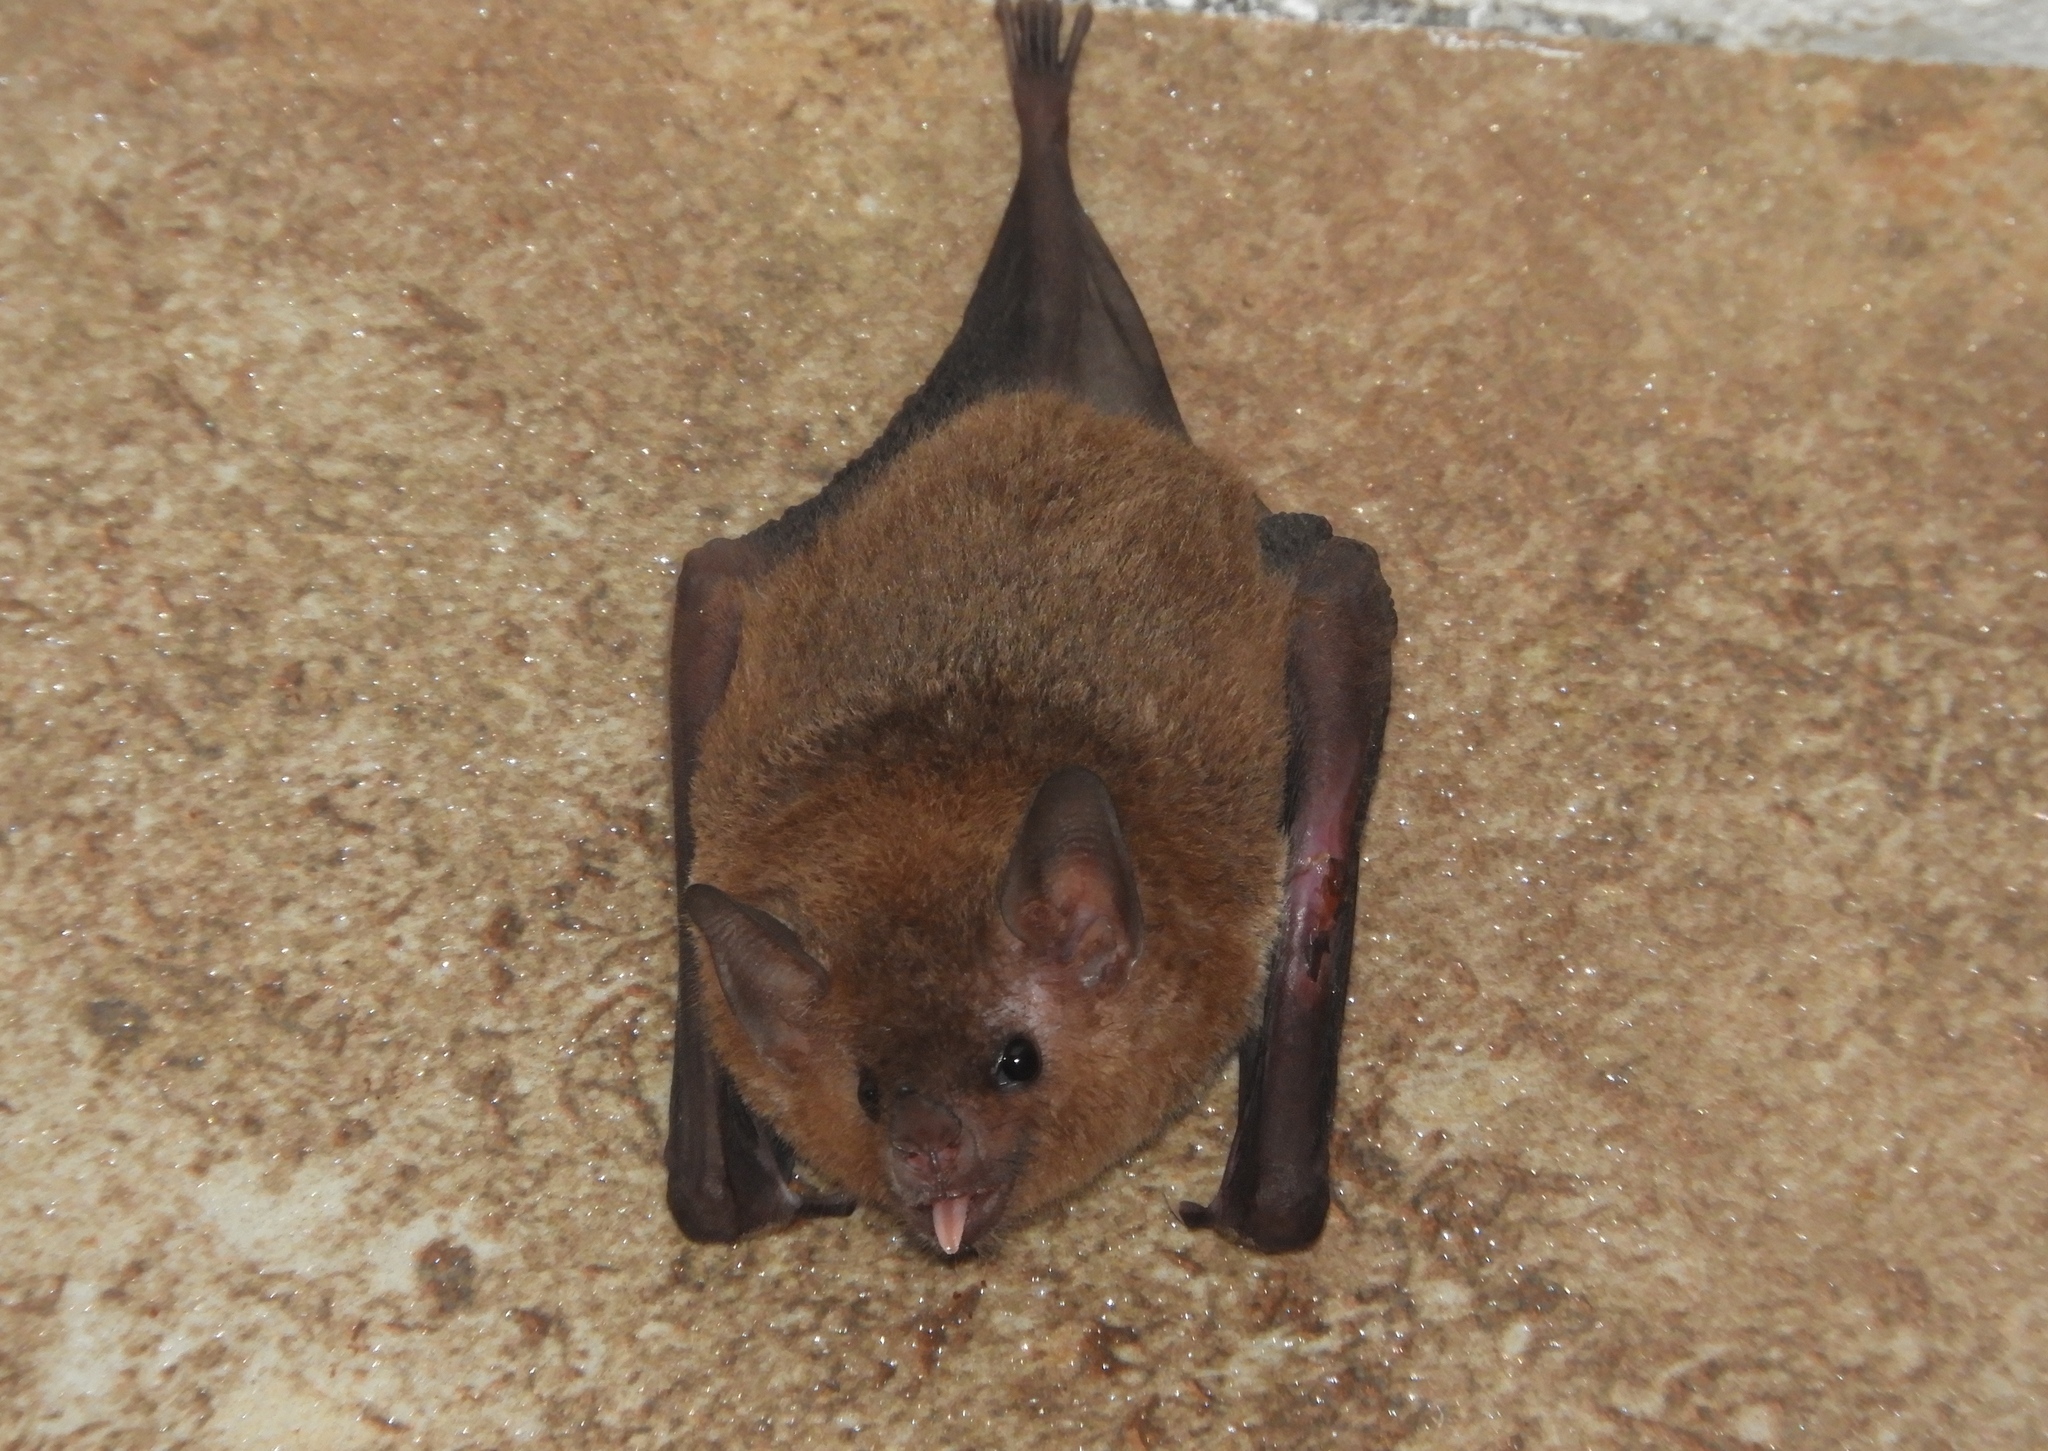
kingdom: Animalia
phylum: Chordata
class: Mammalia
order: Chiroptera
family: Phyllostomidae
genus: Glossophaga
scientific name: Glossophaga soricina
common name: Pallas's long-tongued bat
